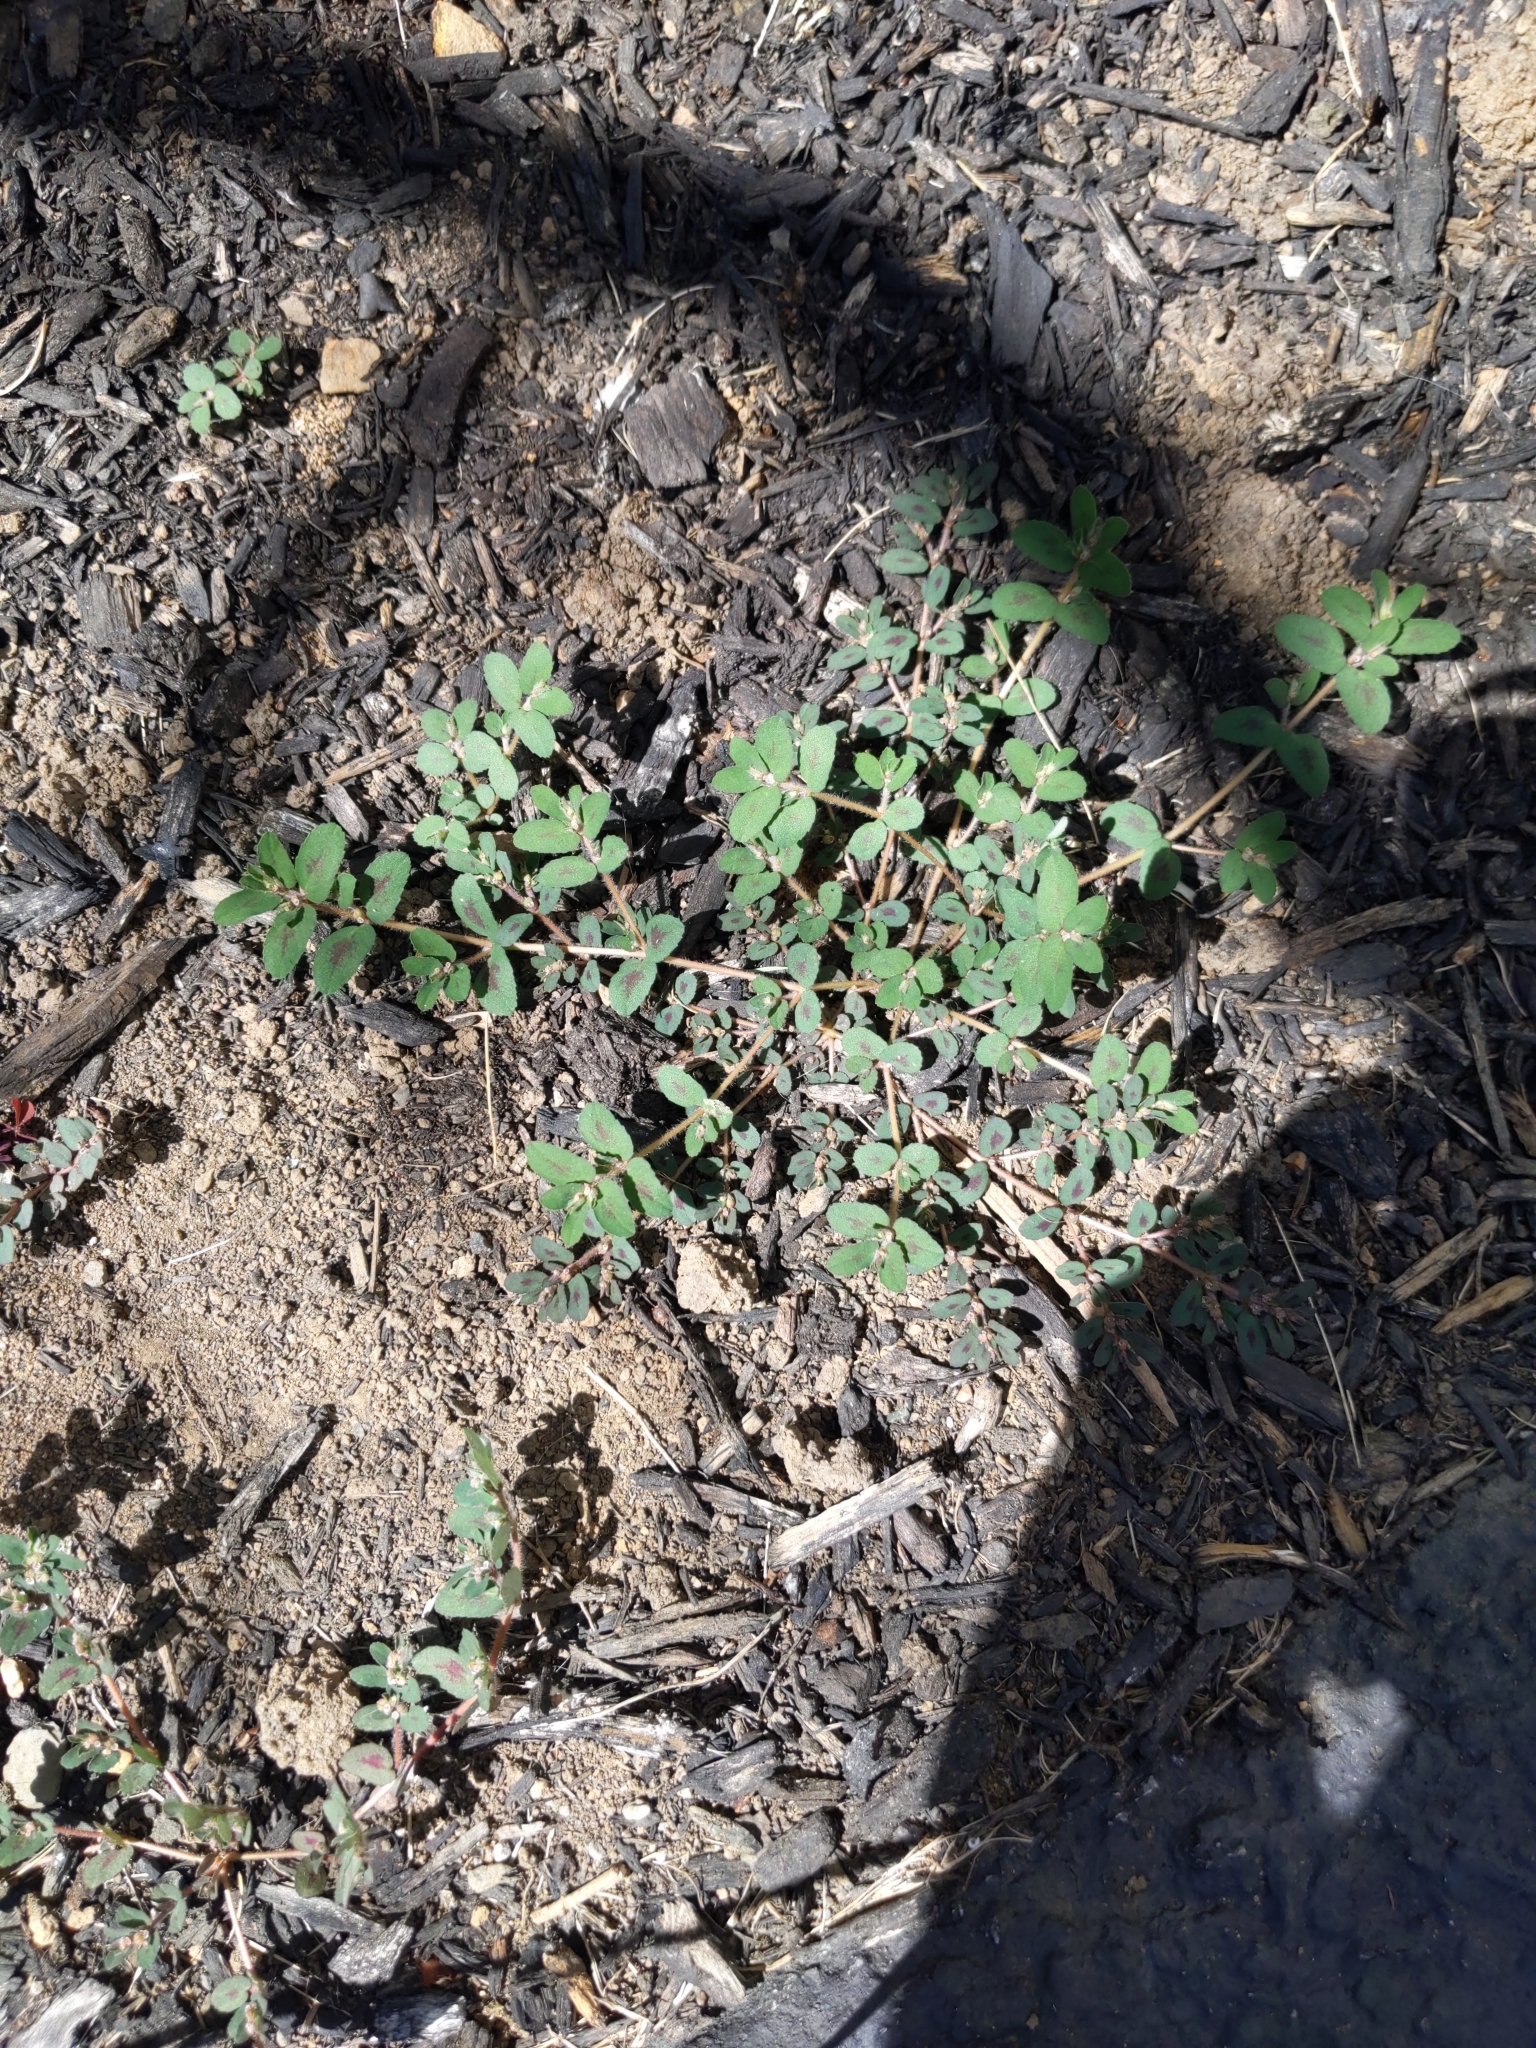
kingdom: Plantae
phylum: Tracheophyta
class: Magnoliopsida
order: Malpighiales
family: Euphorbiaceae
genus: Euphorbia
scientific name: Euphorbia maculata
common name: Spotted spurge
